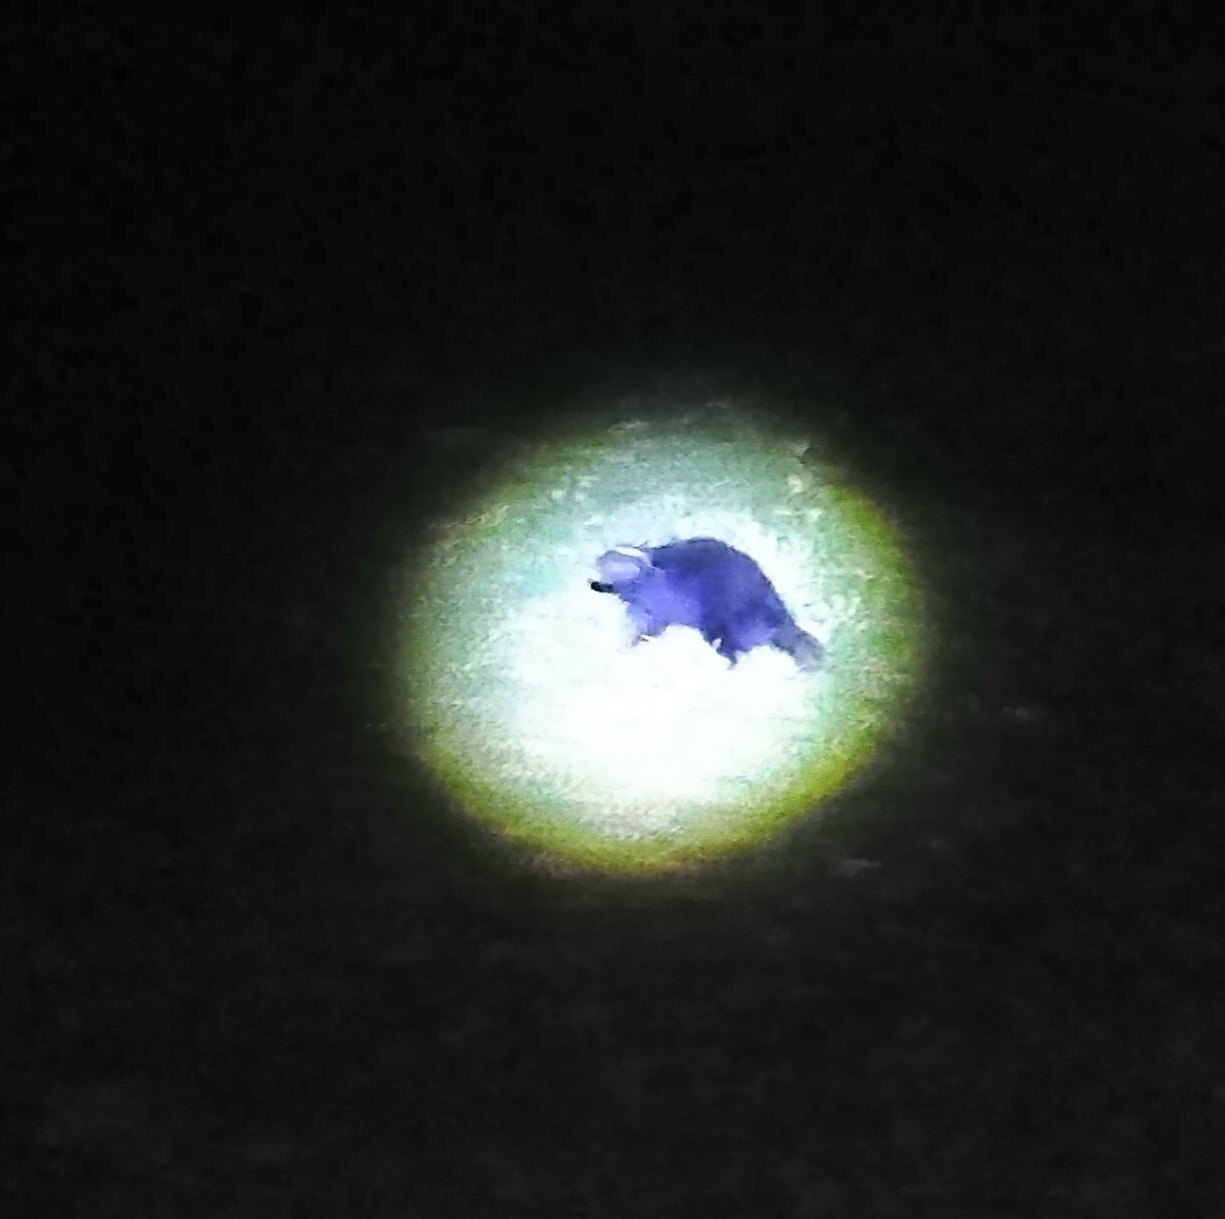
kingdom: Animalia
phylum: Chordata
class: Mammalia
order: Carnivora
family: Mephitidae
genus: Conepatus
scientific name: Conepatus chinga
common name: Molina's hog-nosed skunk
